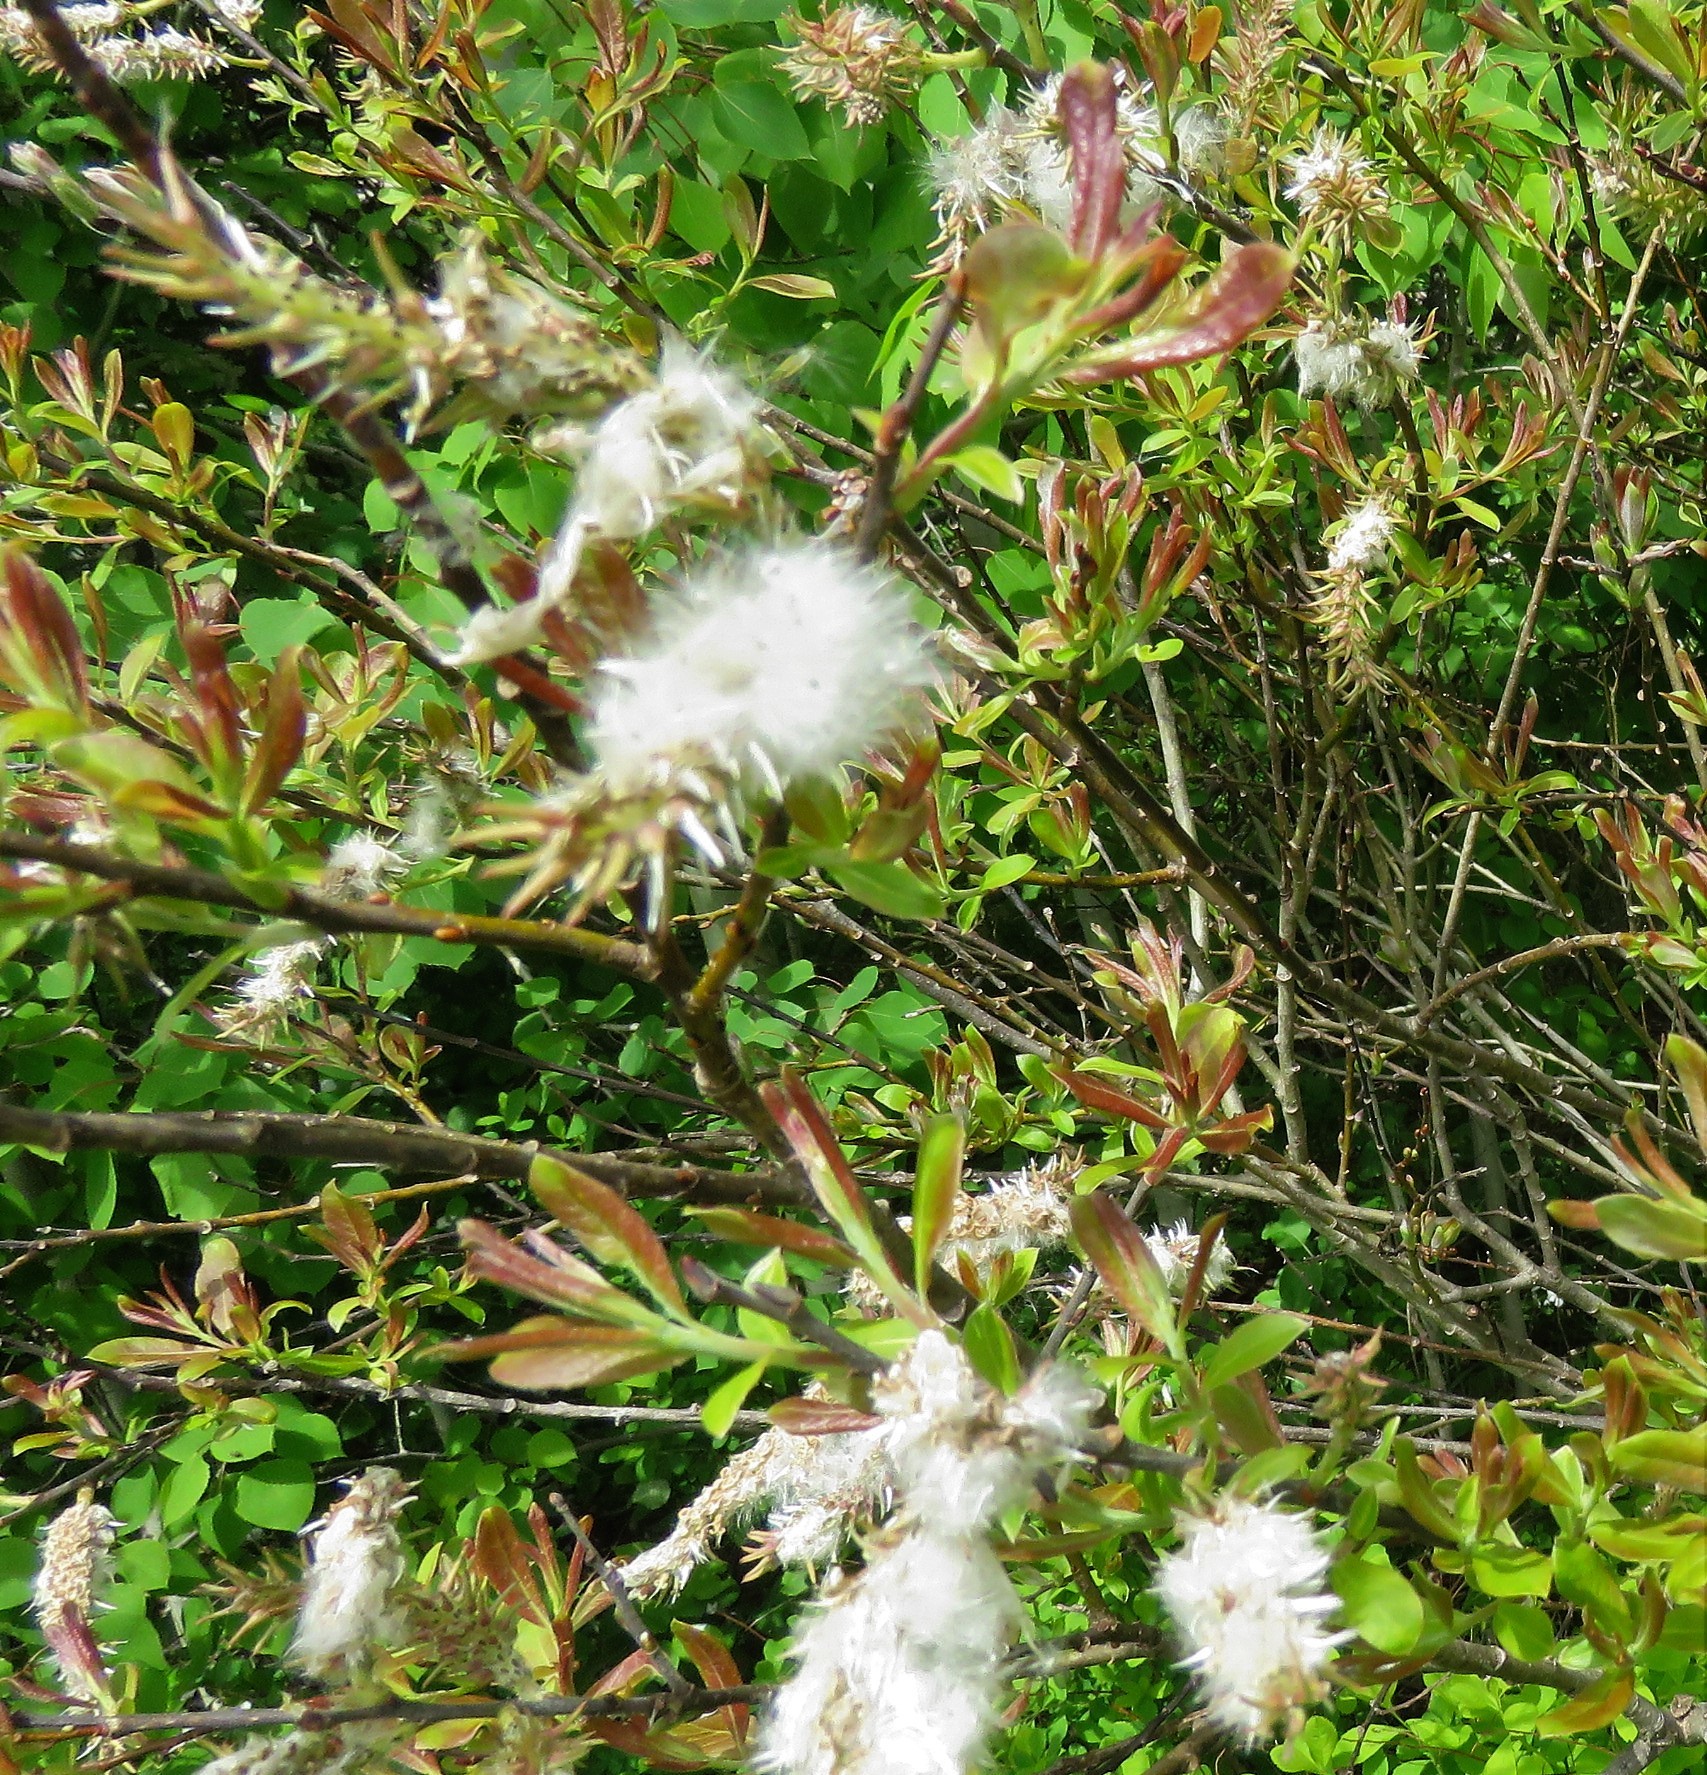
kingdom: Animalia
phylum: Arthropoda
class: Insecta
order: Diptera
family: Cecidomyiidae
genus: Rabdophaga
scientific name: Rabdophaga strobiloides
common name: Willow pinecone gall midge
